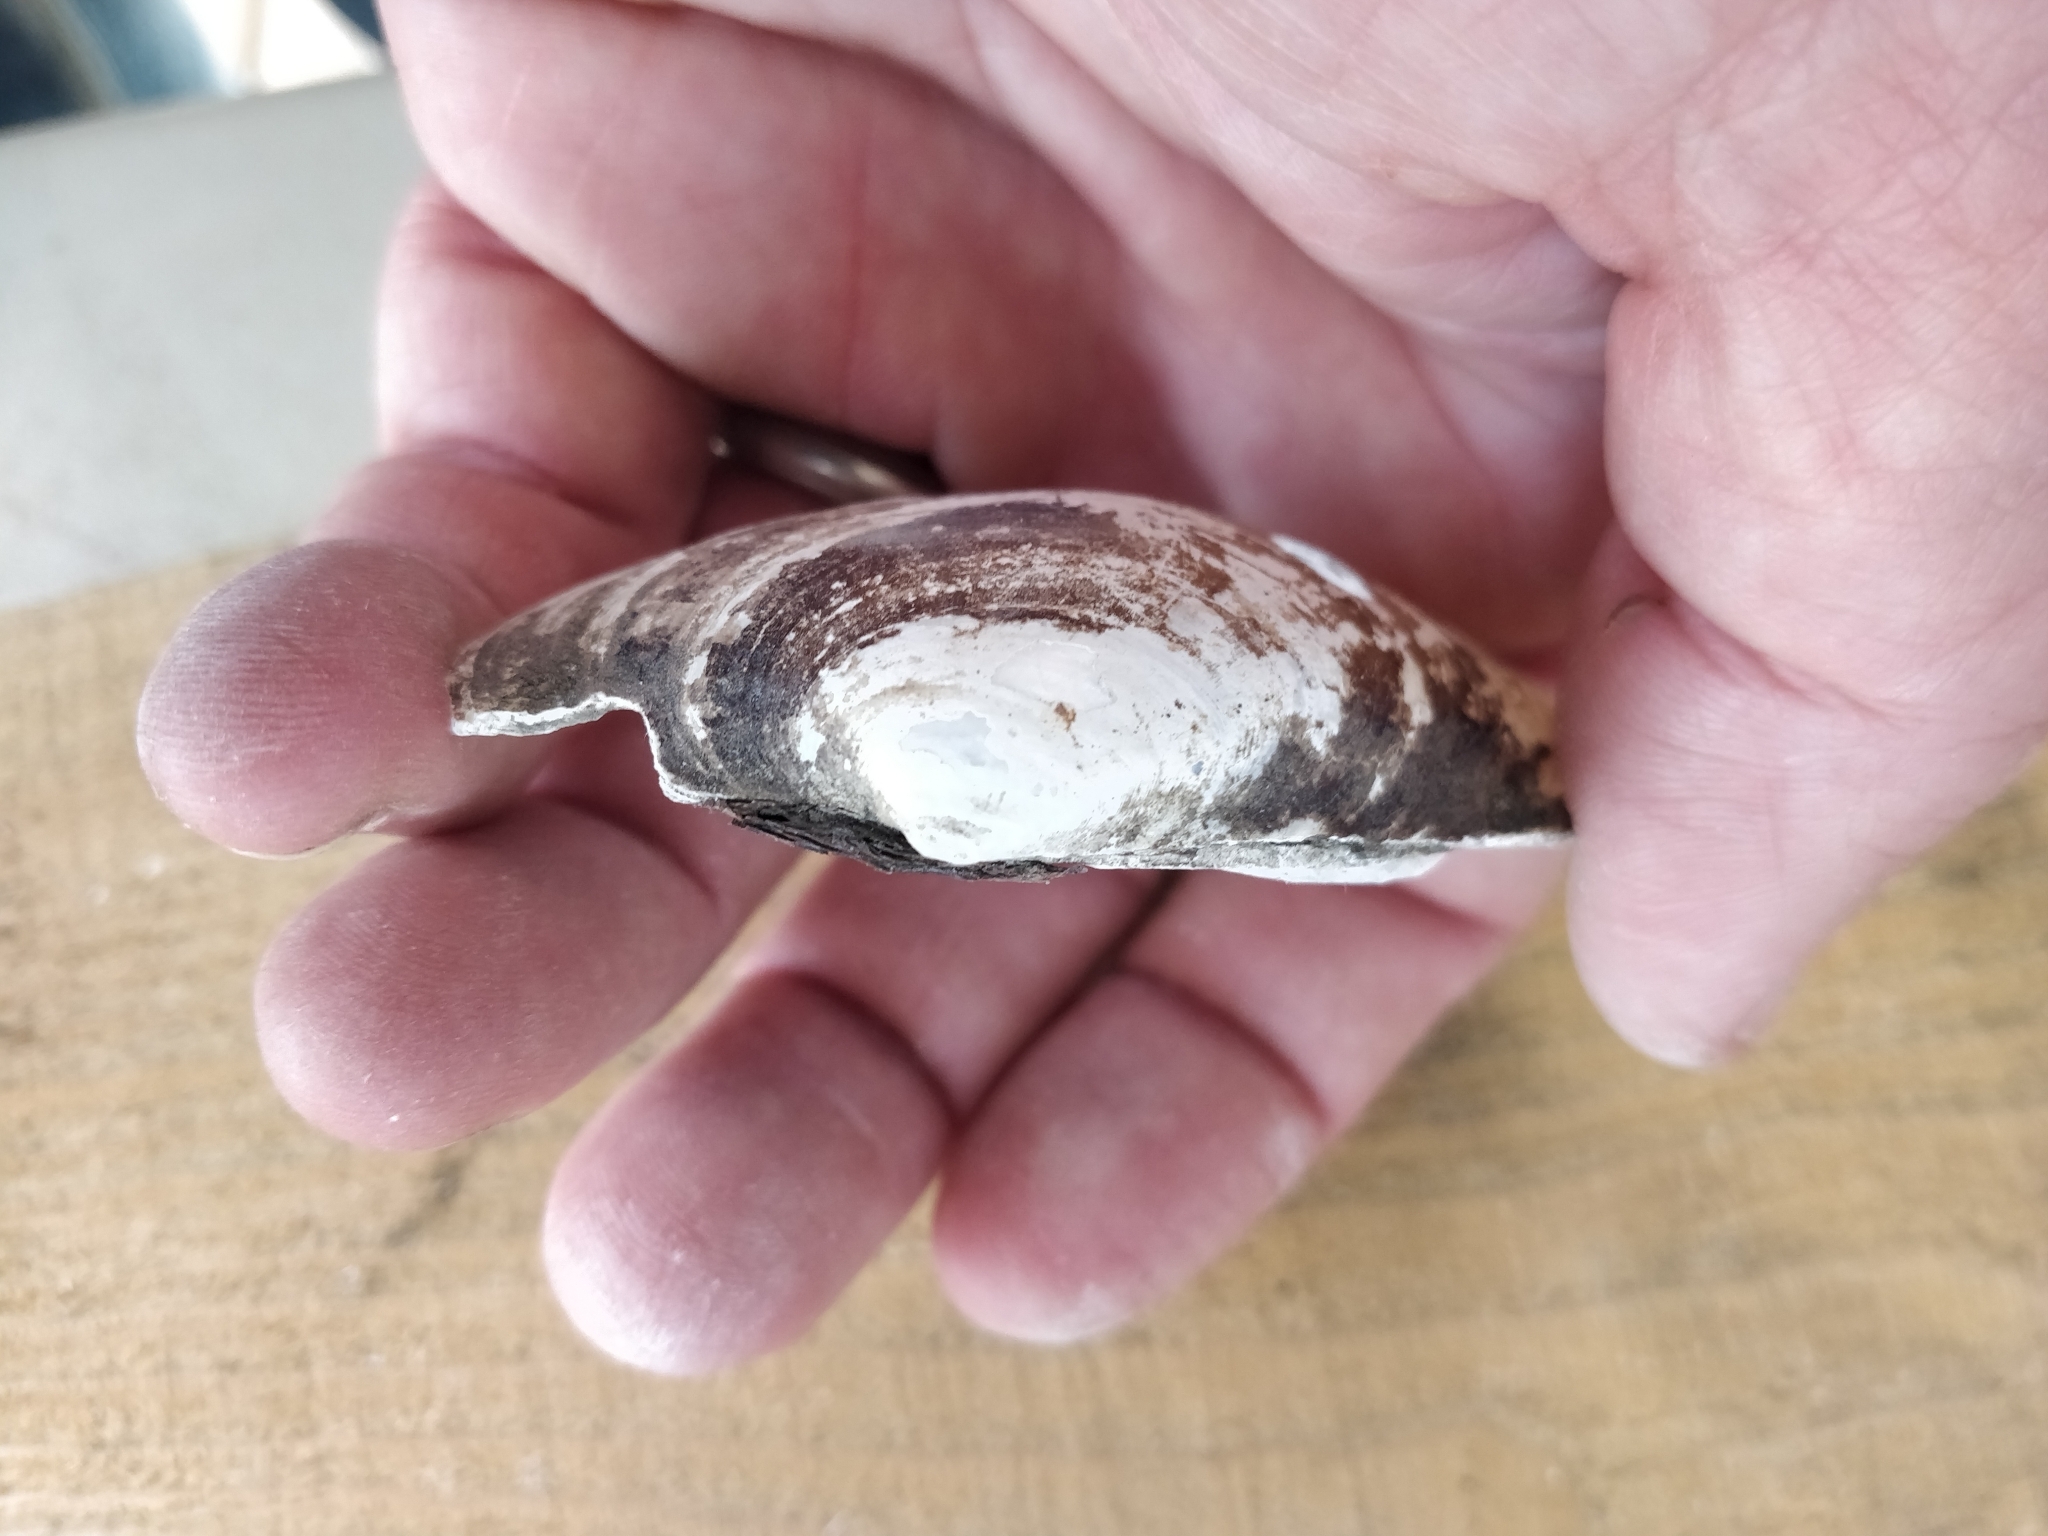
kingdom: Animalia
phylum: Mollusca
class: Bivalvia
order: Unionida
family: Unionidae
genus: Lampsilis
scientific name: Lampsilis cardium
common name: Plain pocketbook
